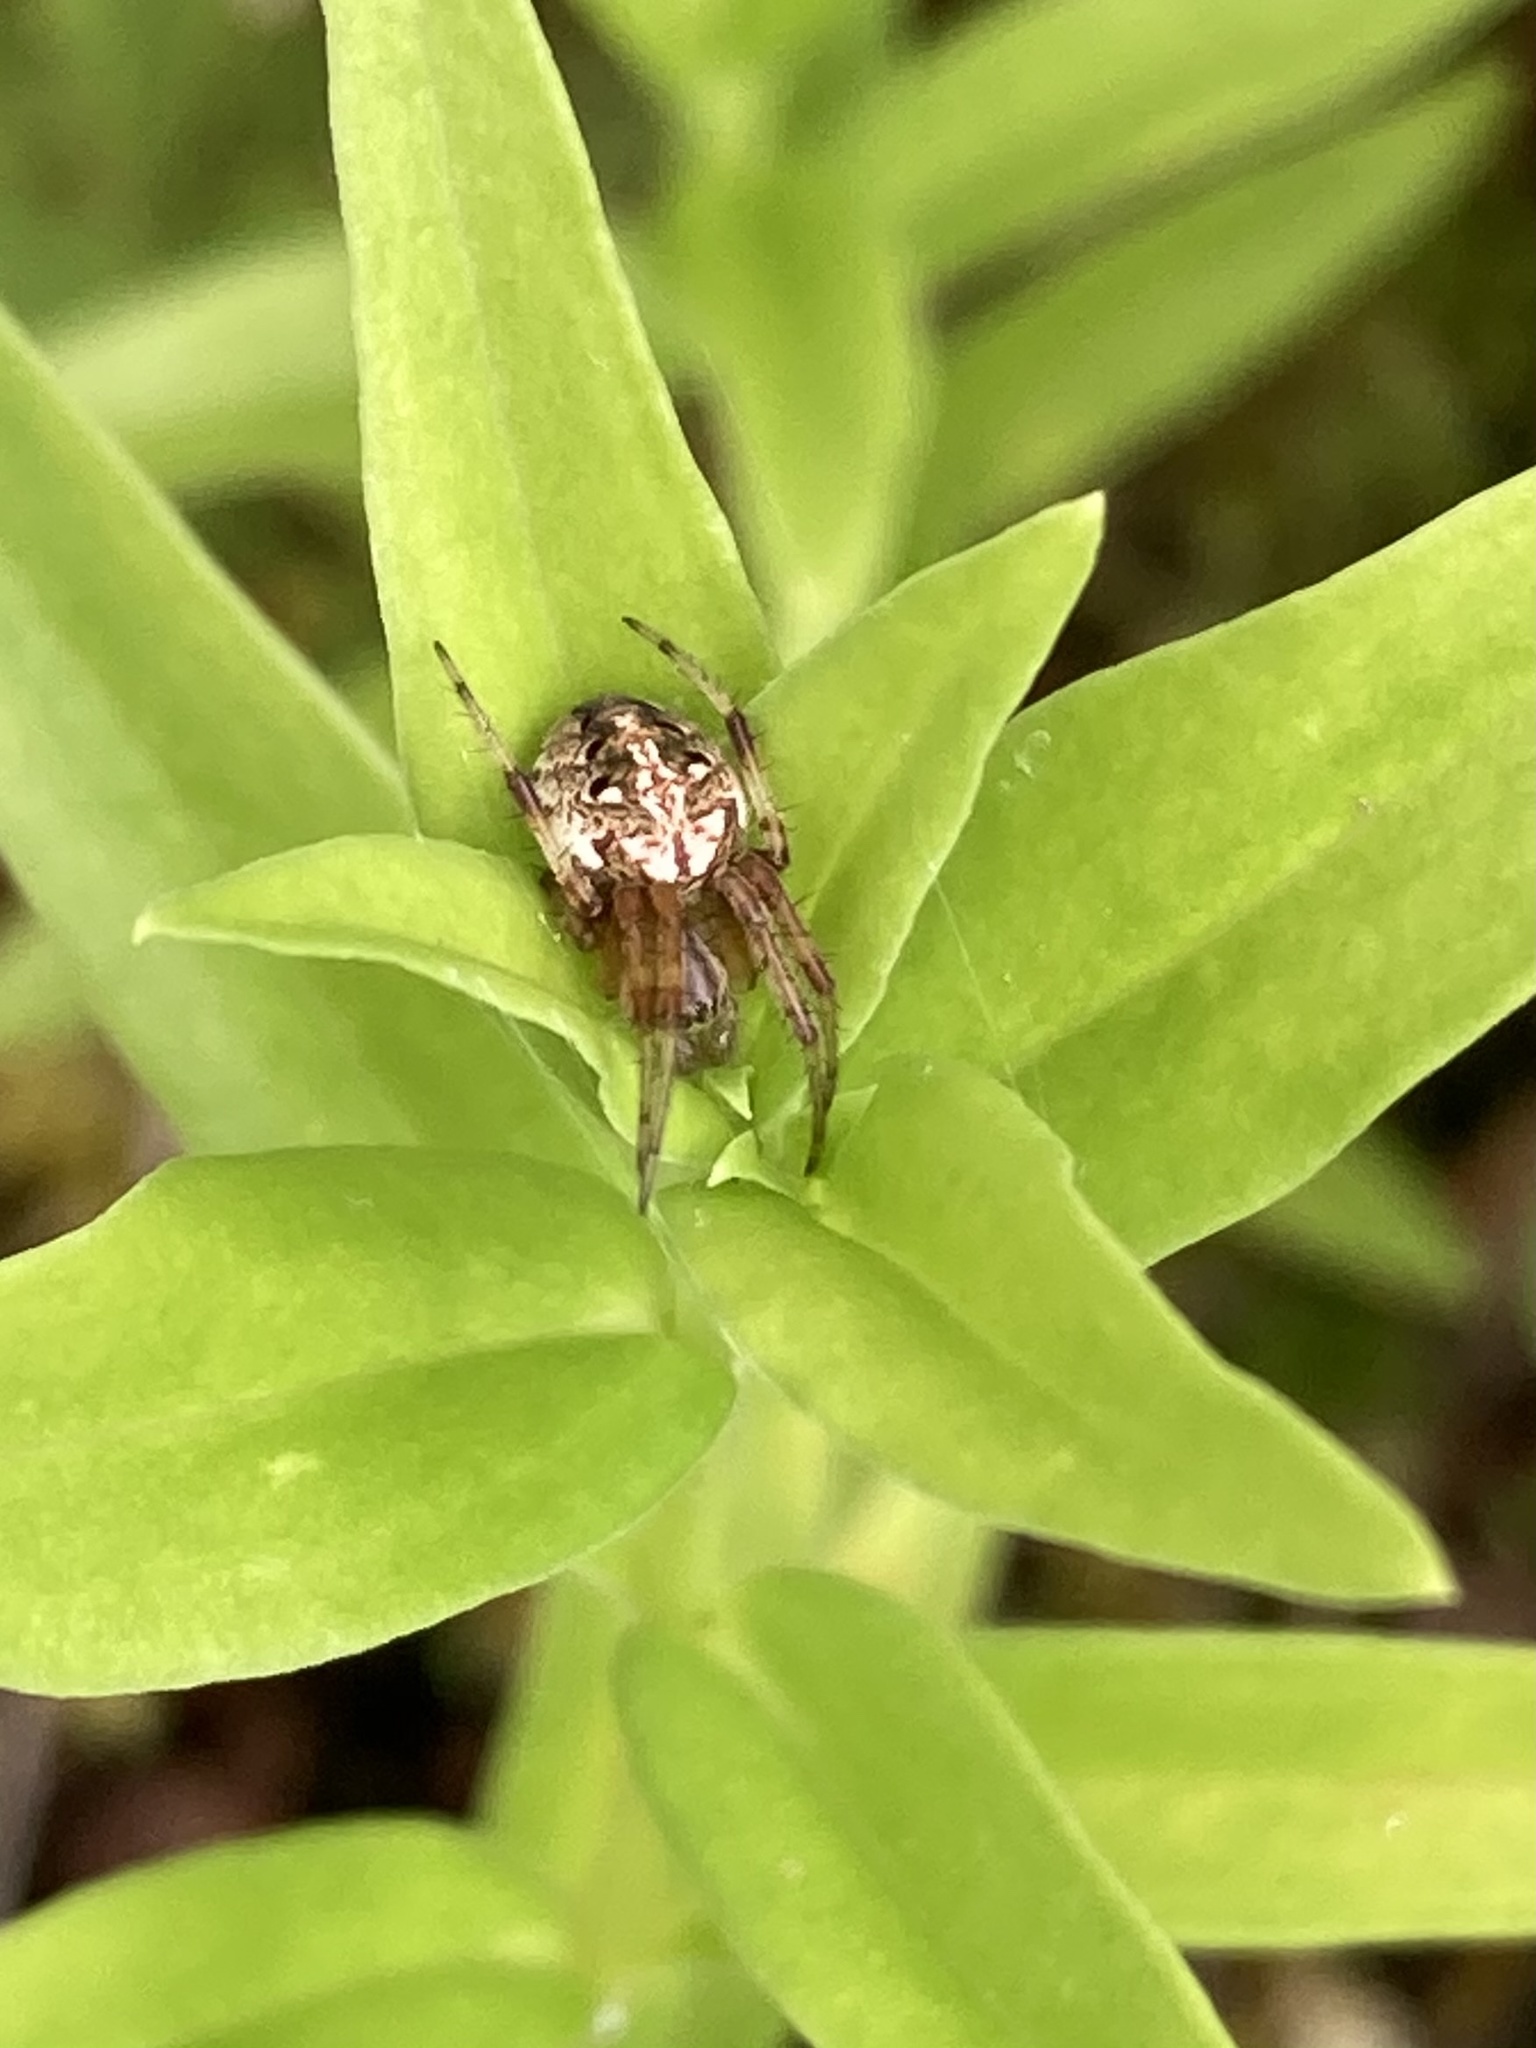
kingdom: Animalia
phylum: Arthropoda
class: Arachnida
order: Araneae
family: Araneidae
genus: Neoscona
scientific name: Neoscona arabesca
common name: Orb weavers
